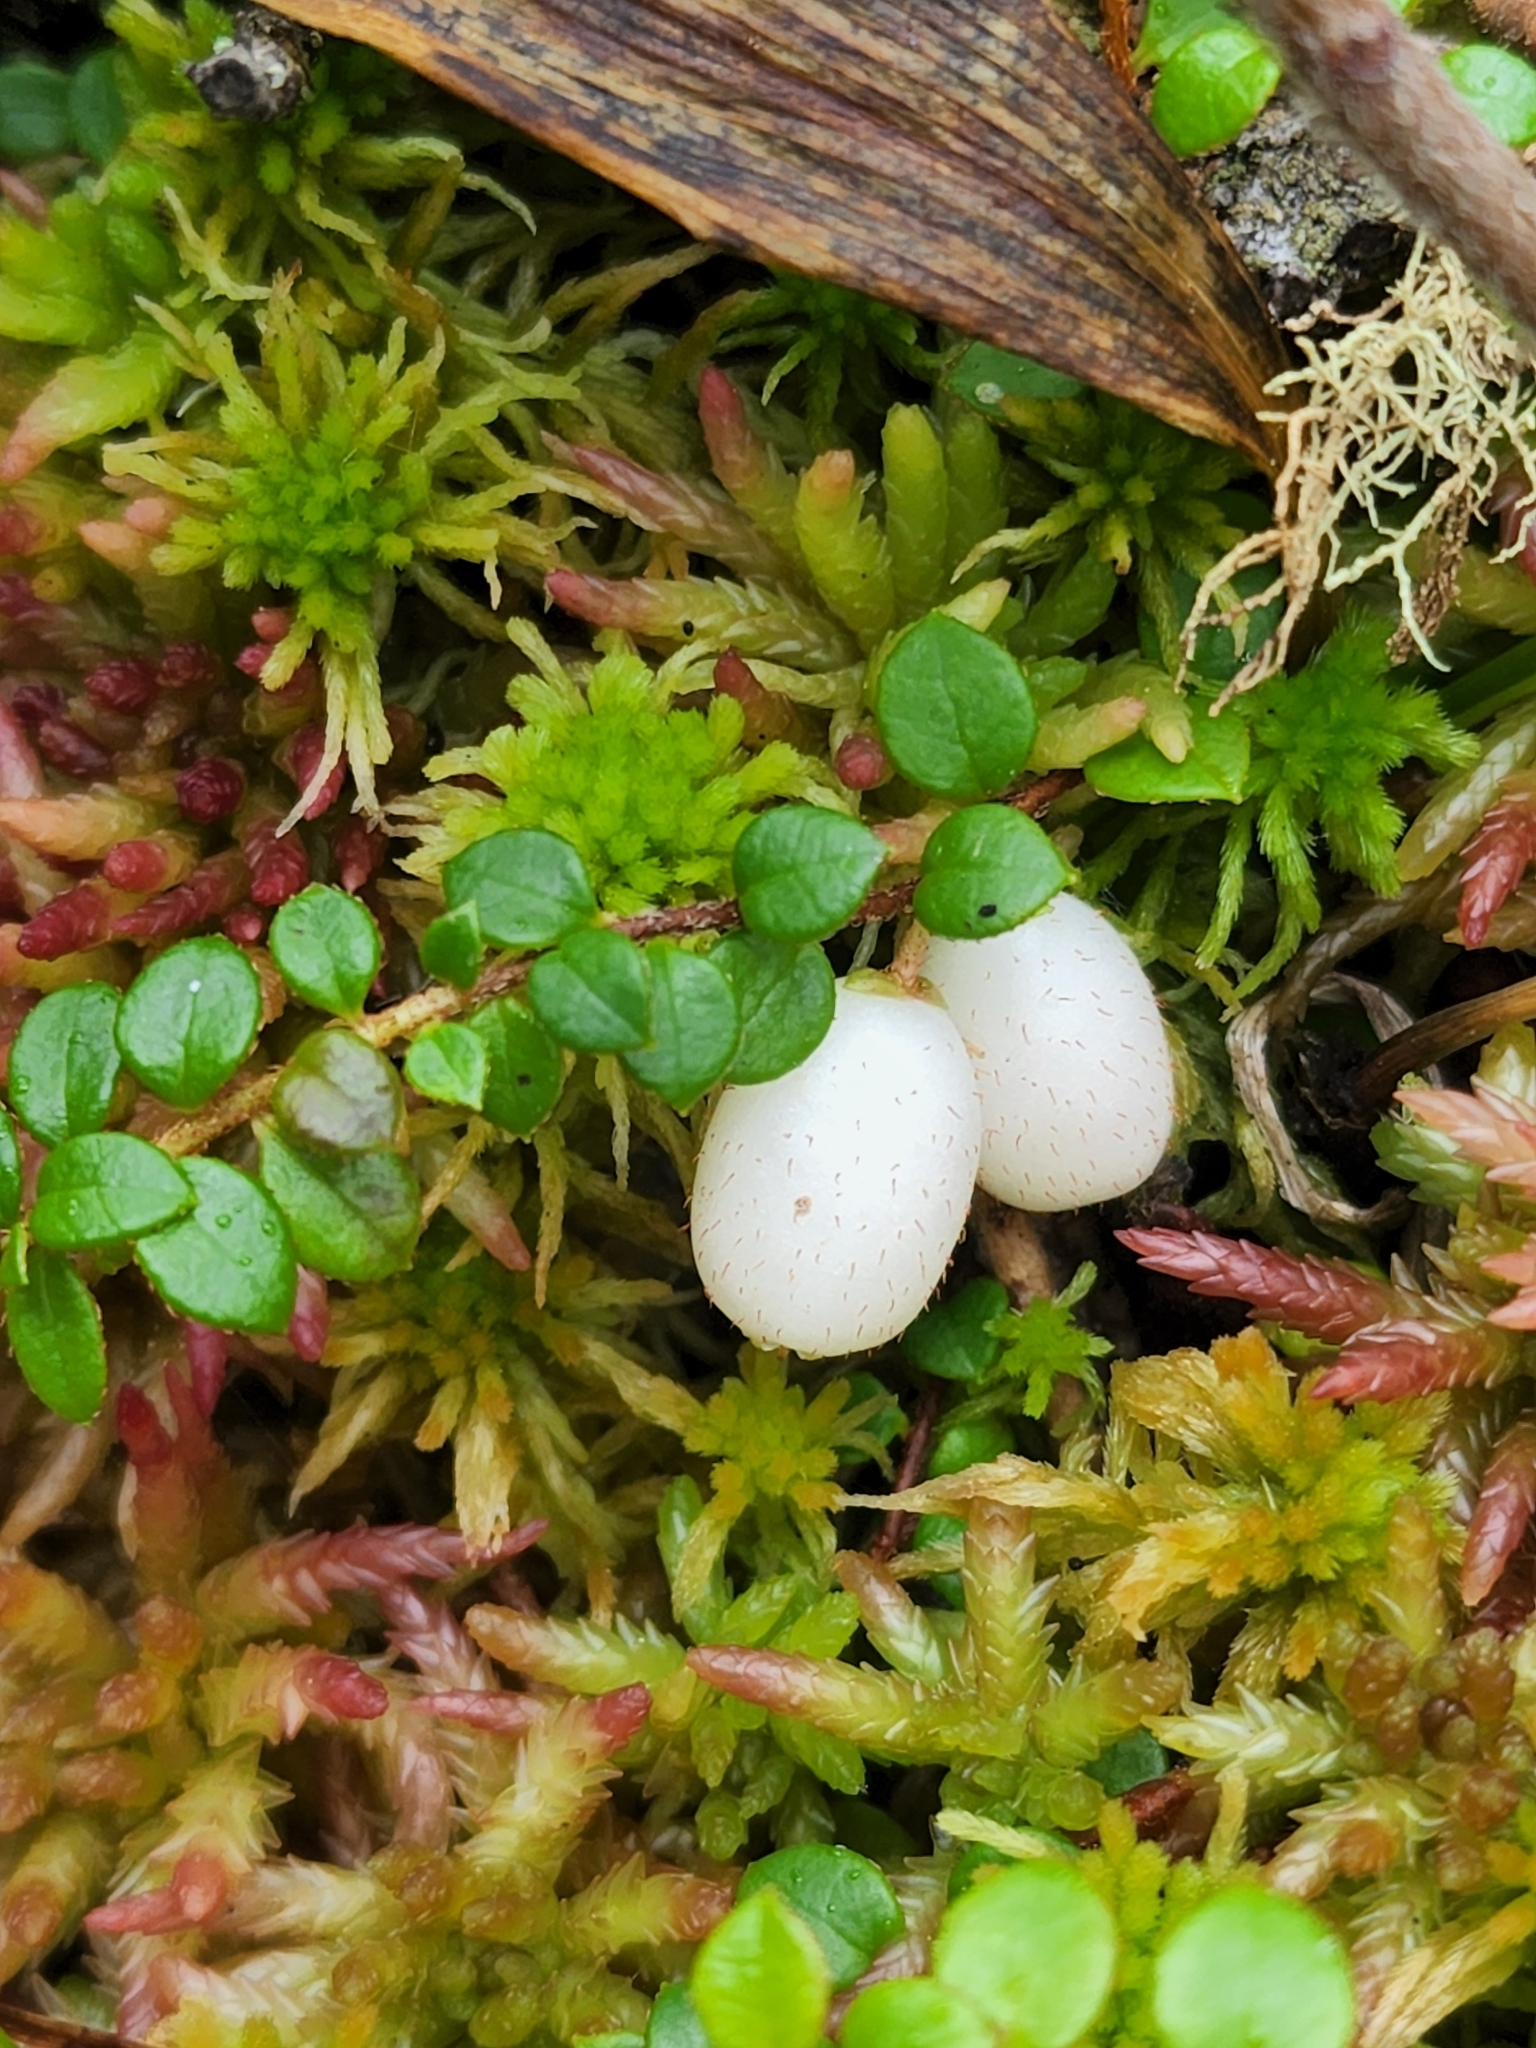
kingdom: Plantae
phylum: Tracheophyta
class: Magnoliopsida
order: Ericales
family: Ericaceae
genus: Gaultheria
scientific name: Gaultheria hispidula
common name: Cancer wintergreen
